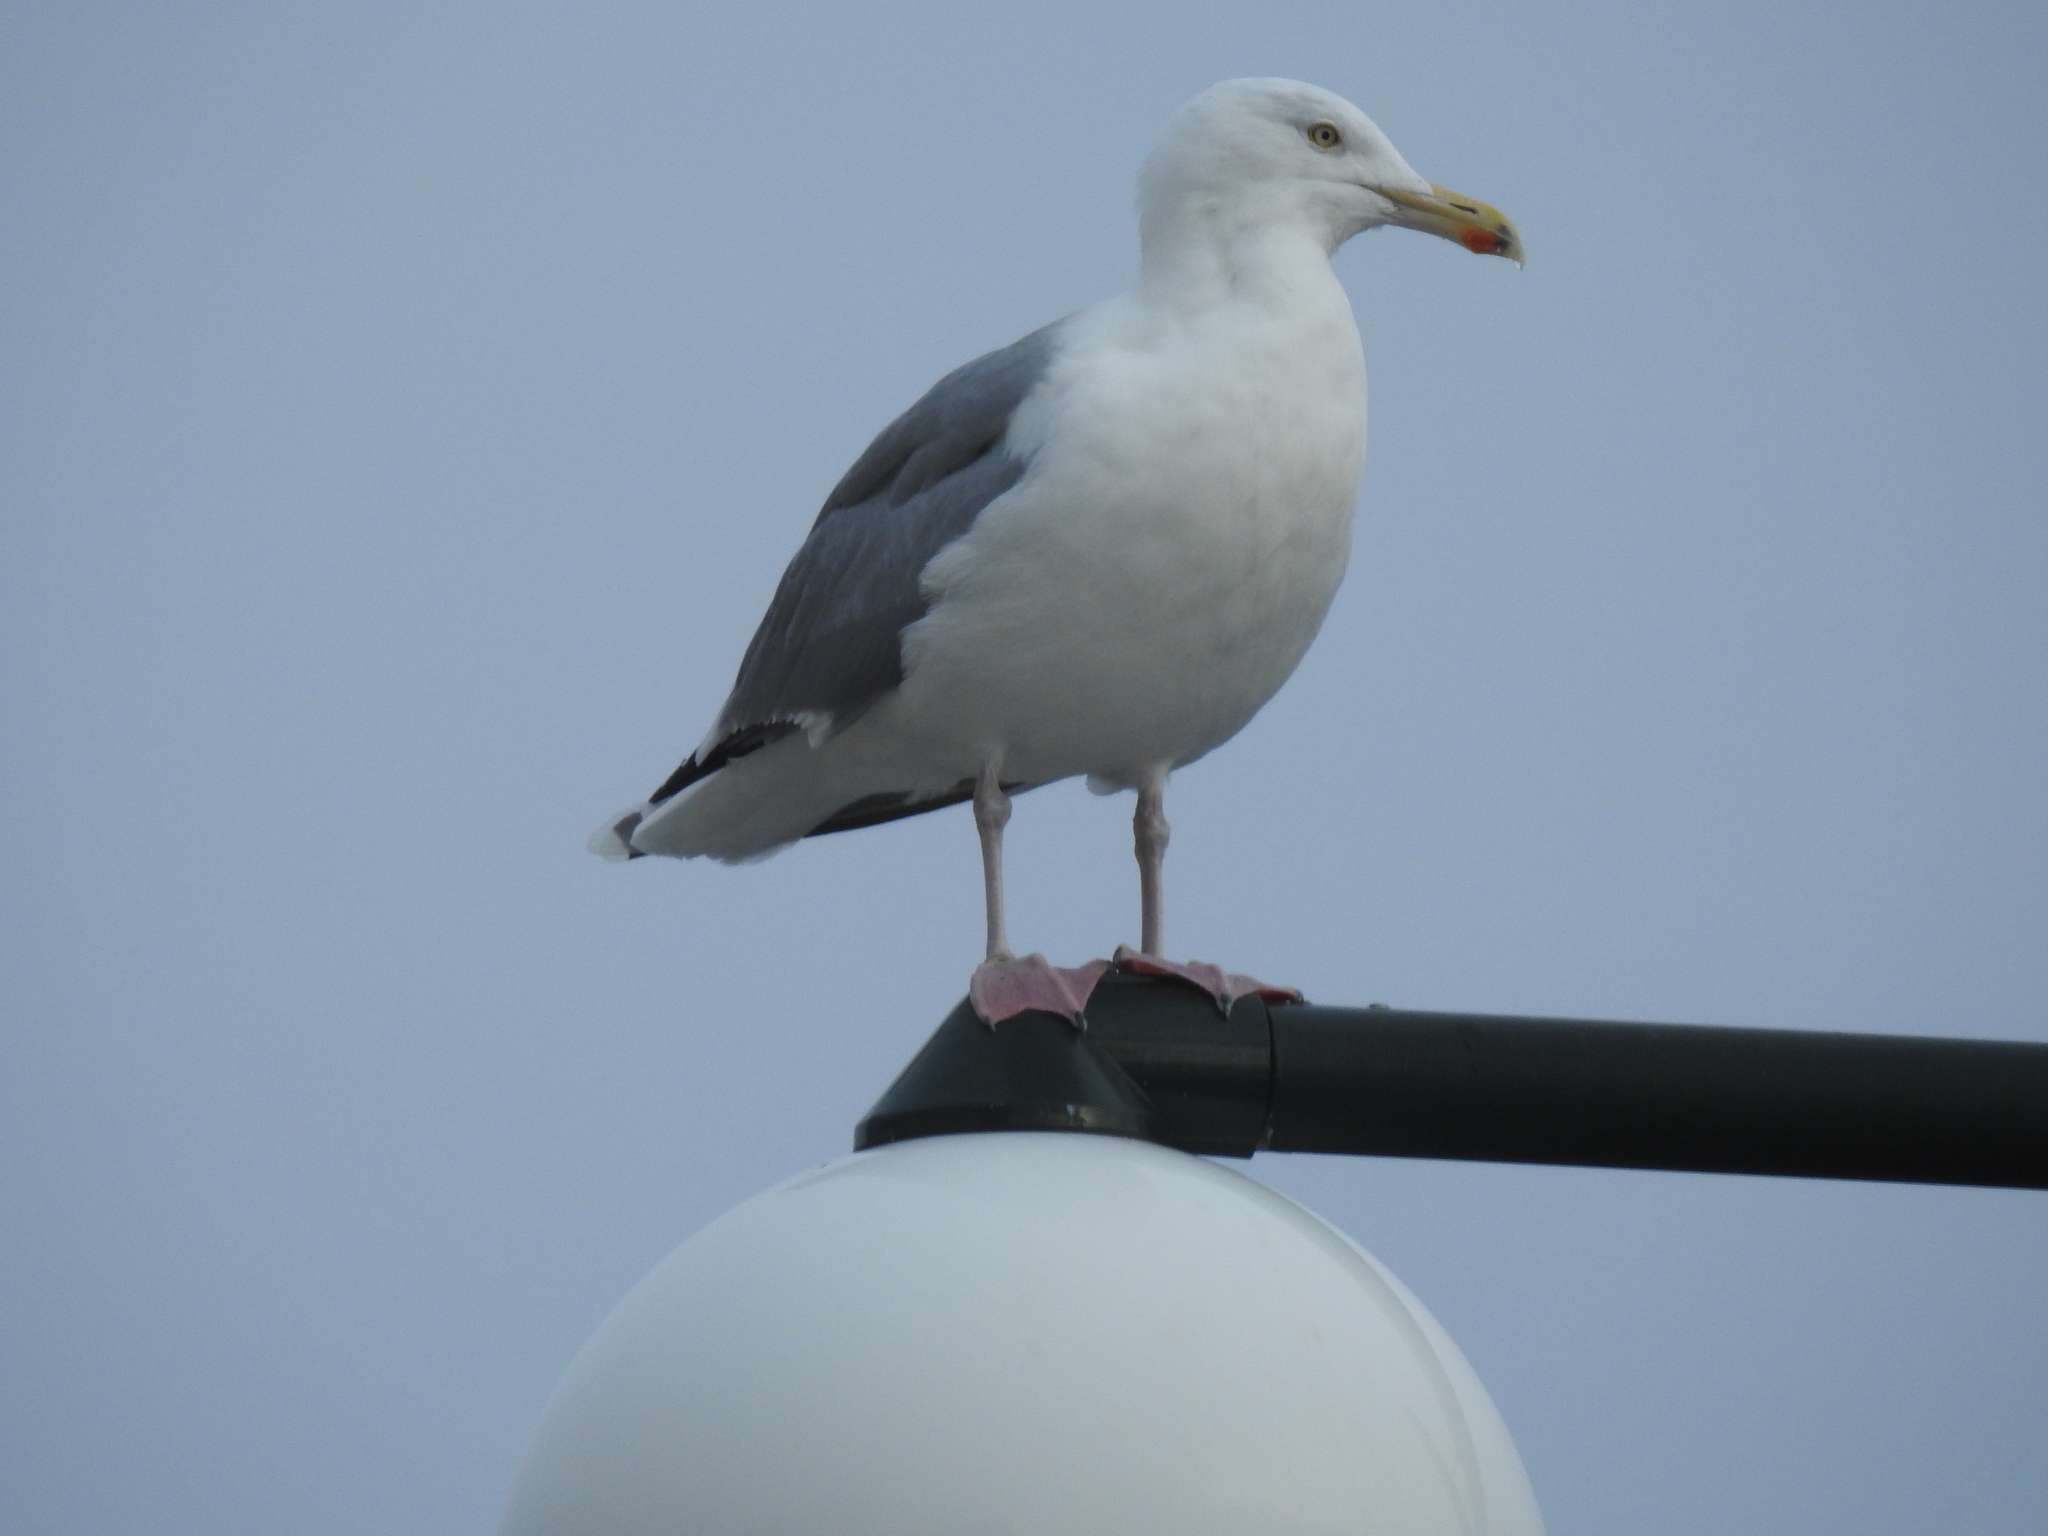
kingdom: Animalia
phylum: Chordata
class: Aves
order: Charadriiformes
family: Laridae
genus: Larus
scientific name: Larus argentatus
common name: Herring gull
